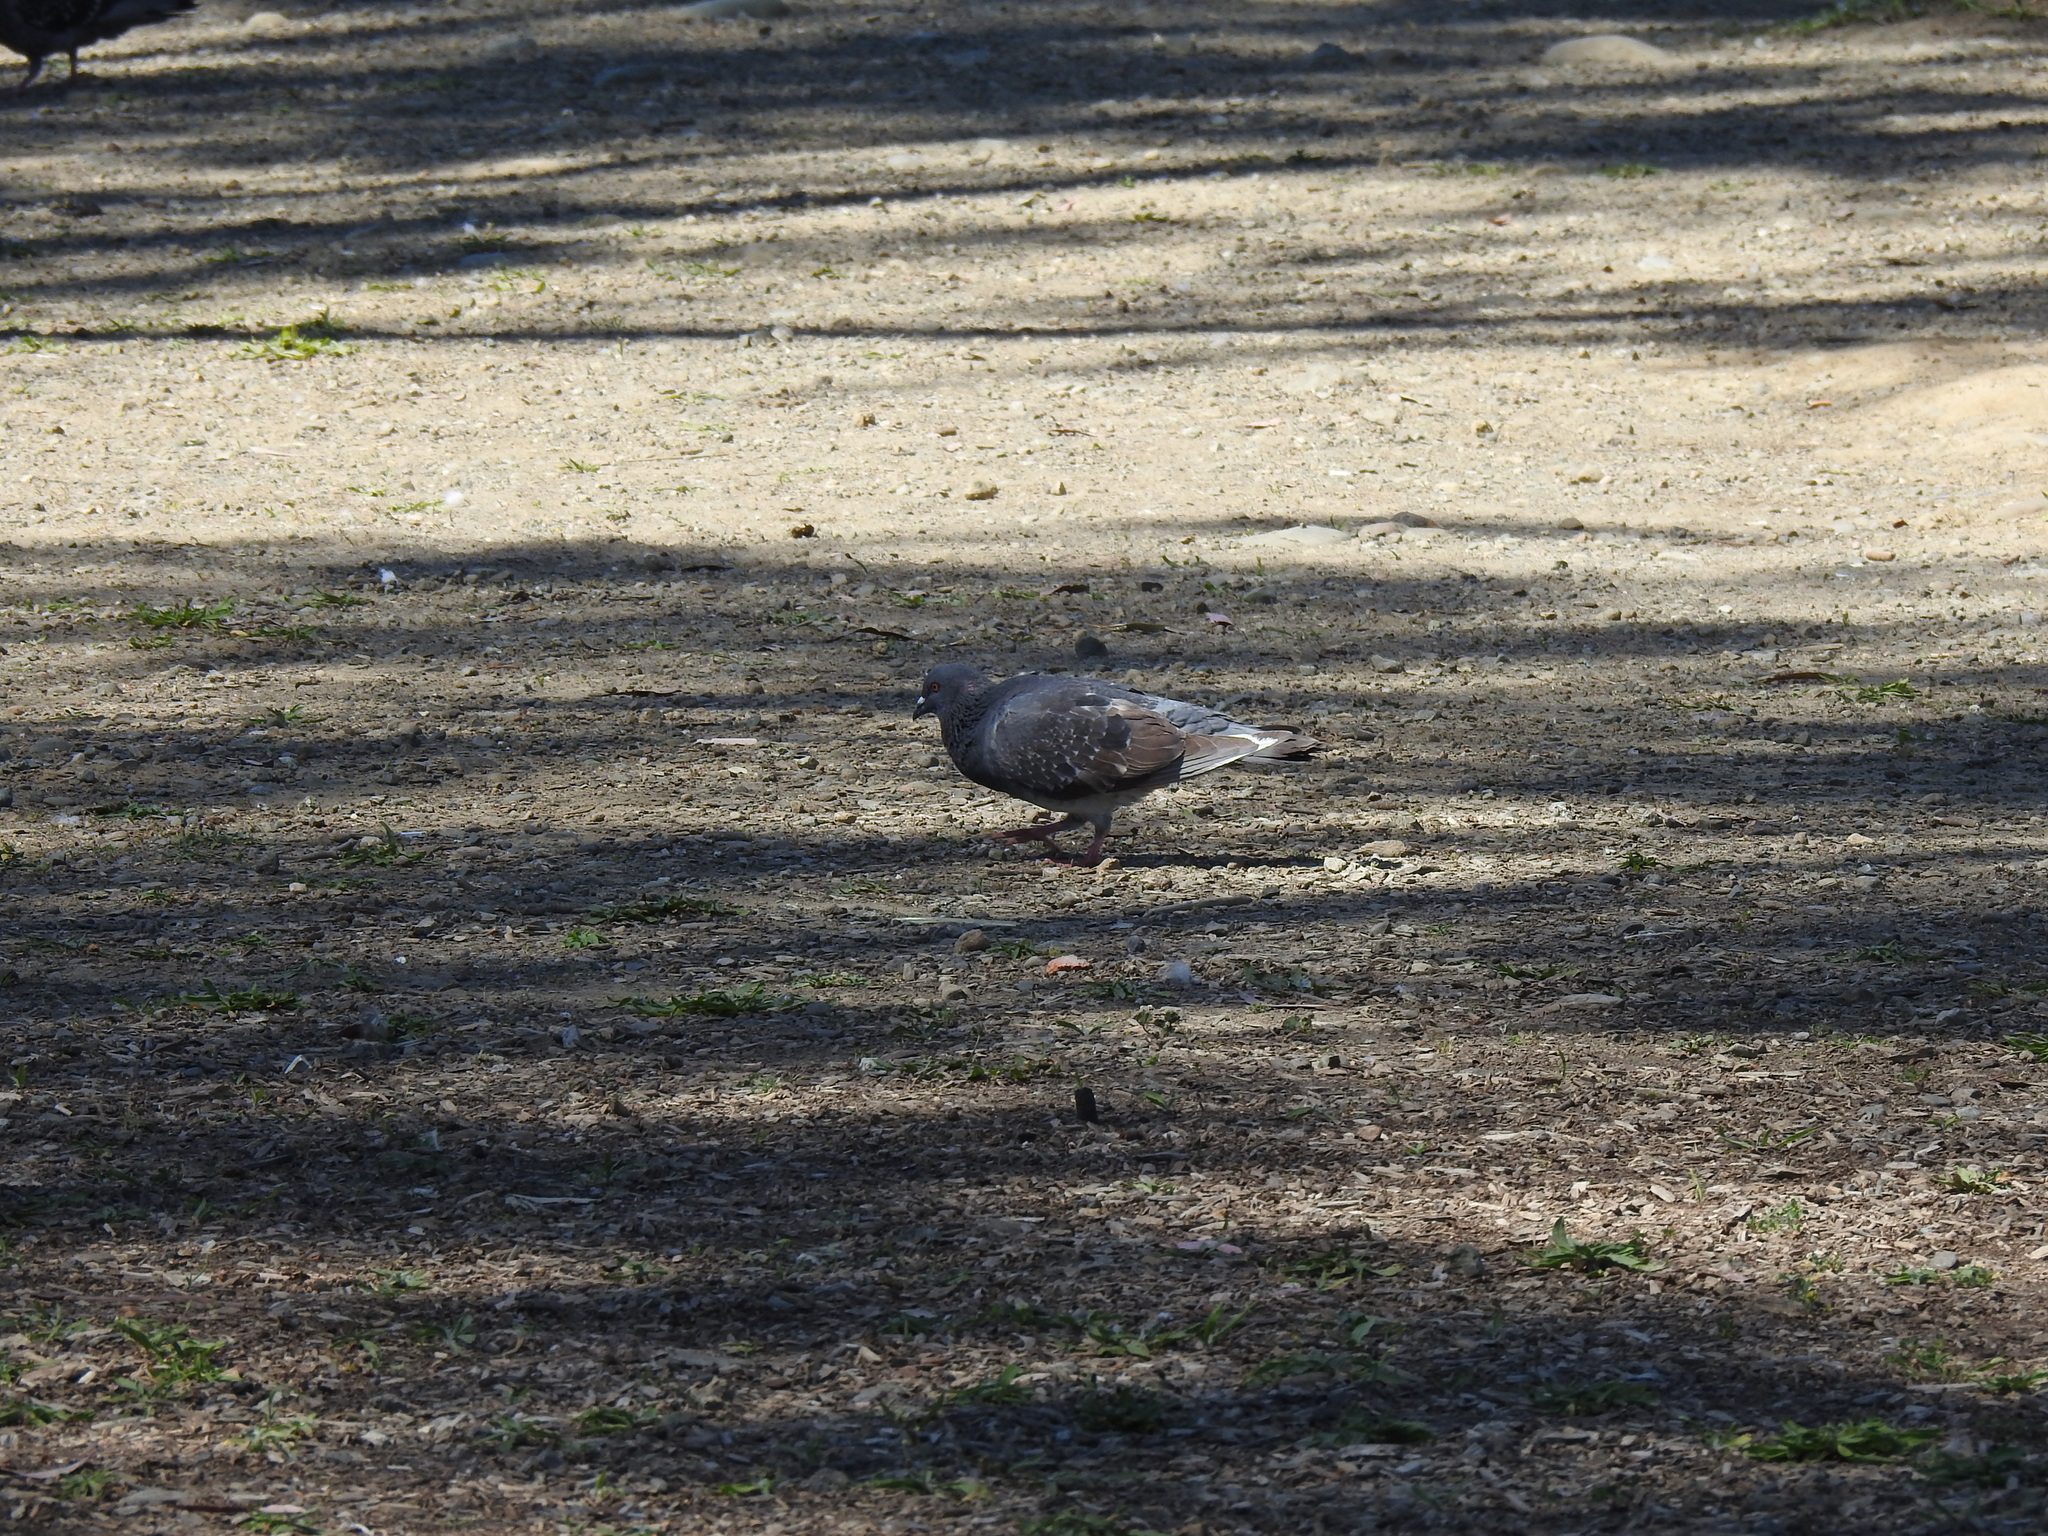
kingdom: Animalia
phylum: Chordata
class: Aves
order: Columbiformes
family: Columbidae
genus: Columba
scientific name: Columba livia
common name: Rock pigeon
